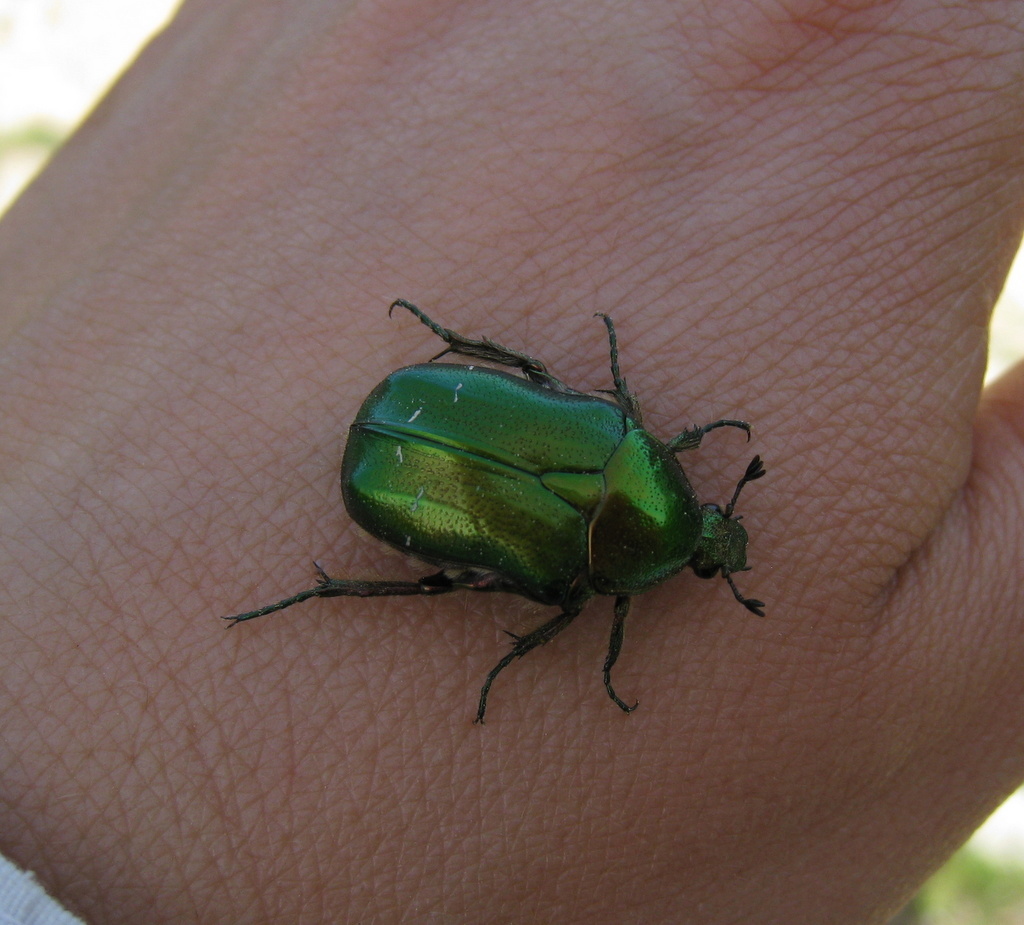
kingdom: Animalia
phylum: Arthropoda
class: Insecta
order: Coleoptera
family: Scarabaeidae
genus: Cetonia
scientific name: Cetonia aurata
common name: Rose chafer
